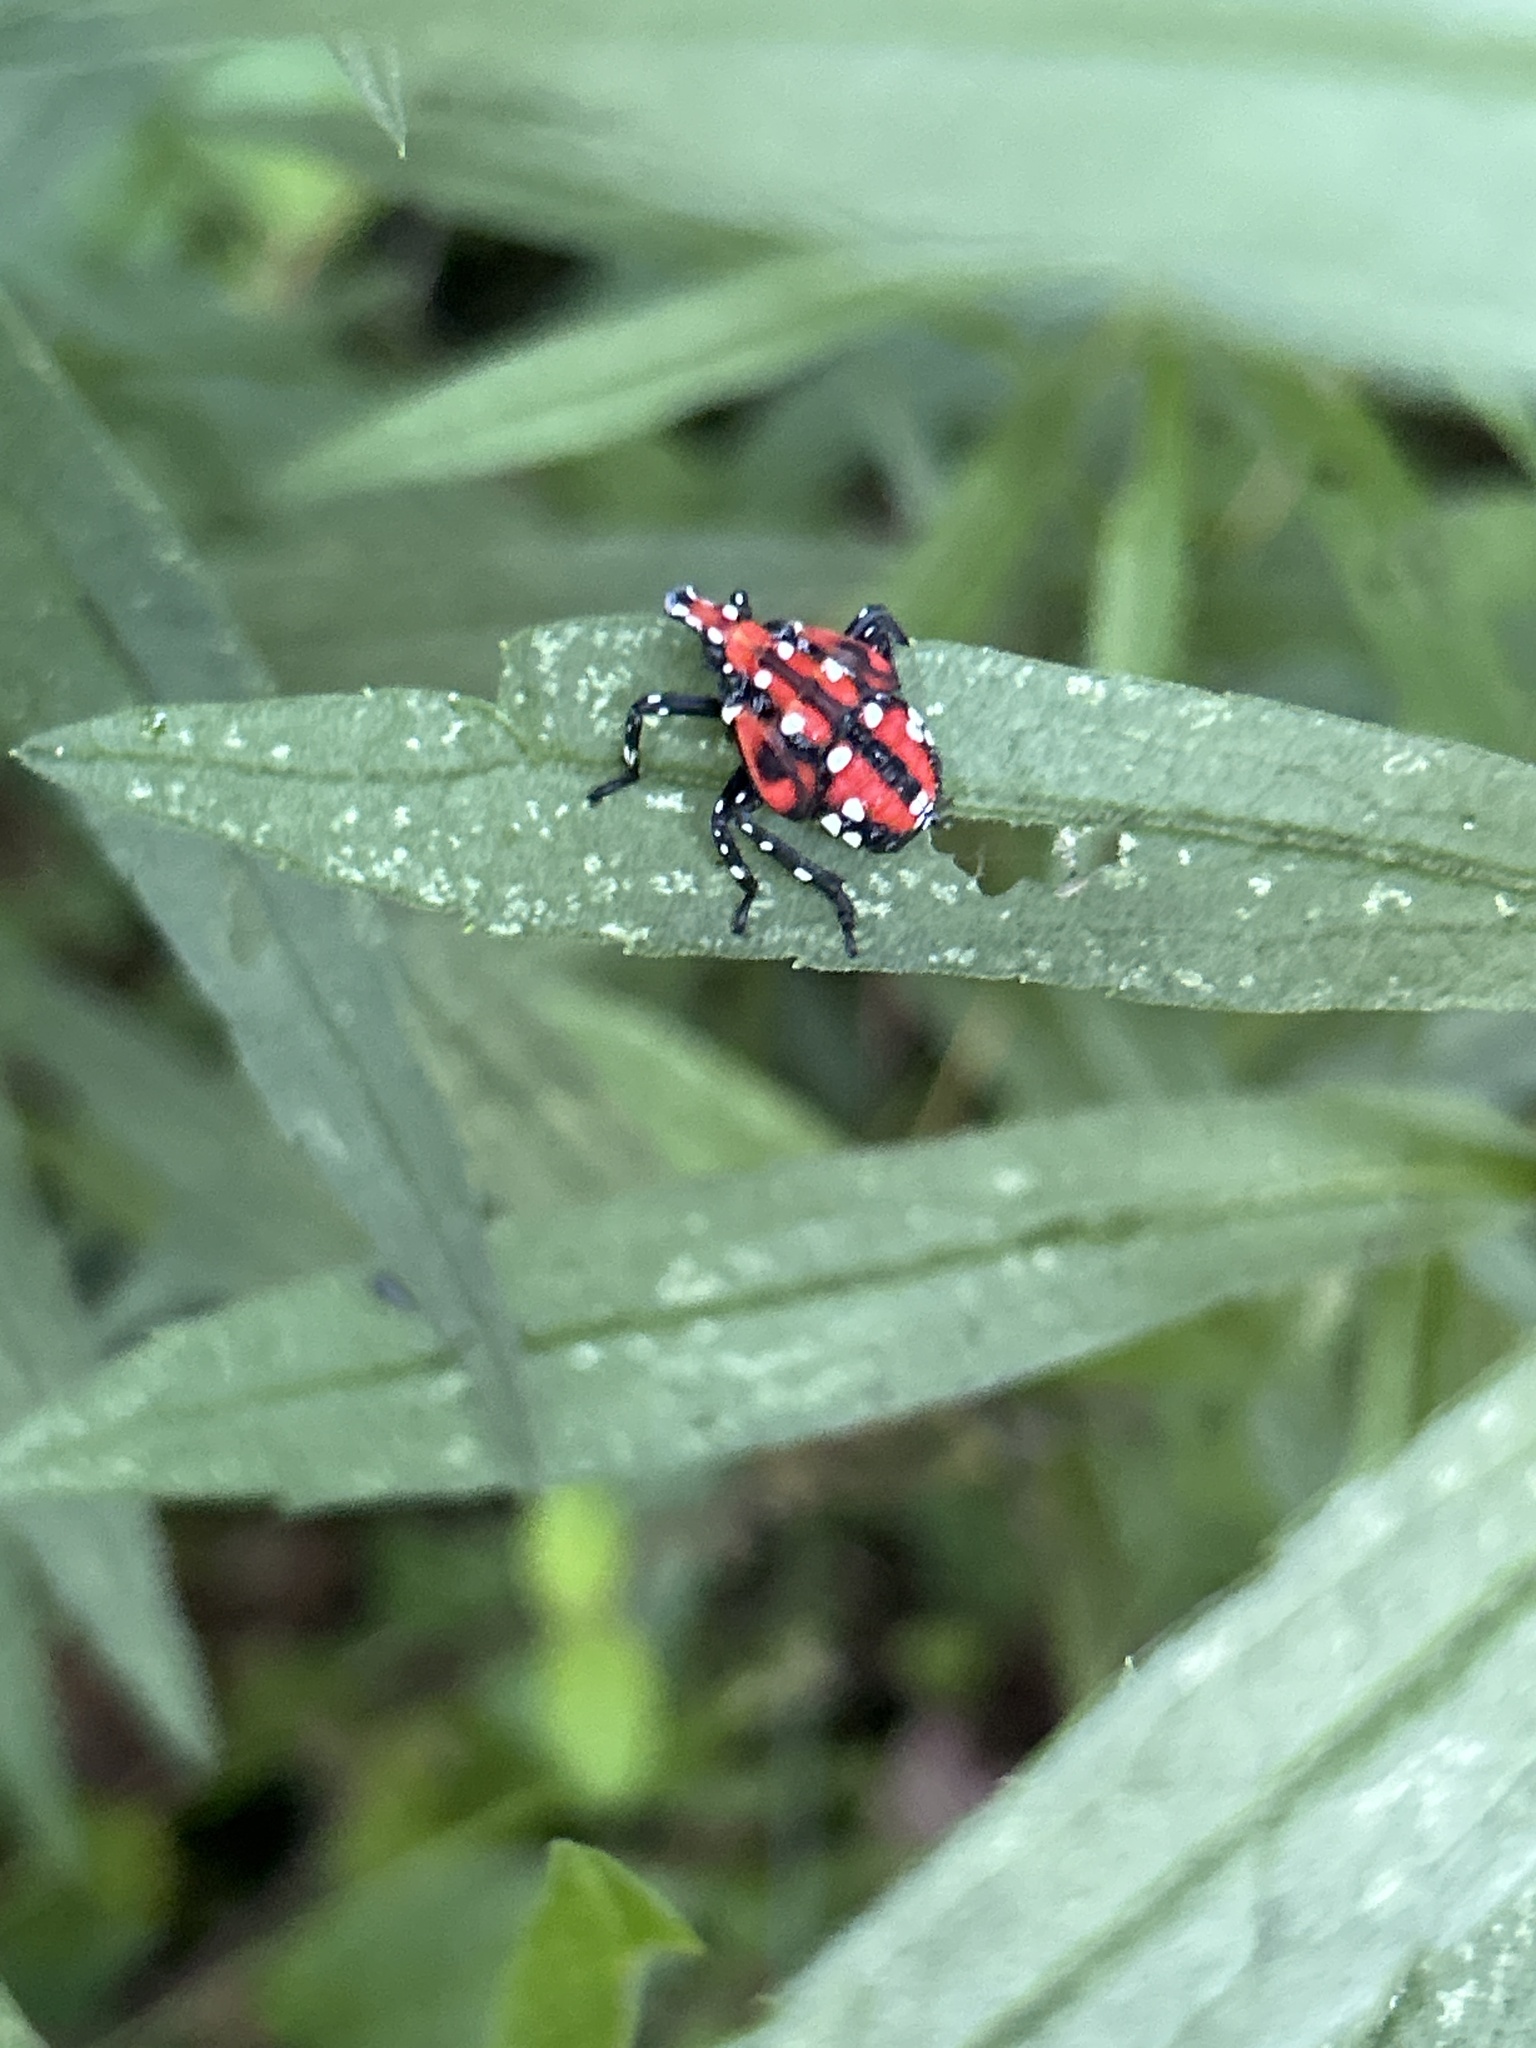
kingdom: Animalia
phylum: Arthropoda
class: Insecta
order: Hemiptera
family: Fulgoridae
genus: Lycorma
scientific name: Lycorma delicatula
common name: Spotted lanternfly
